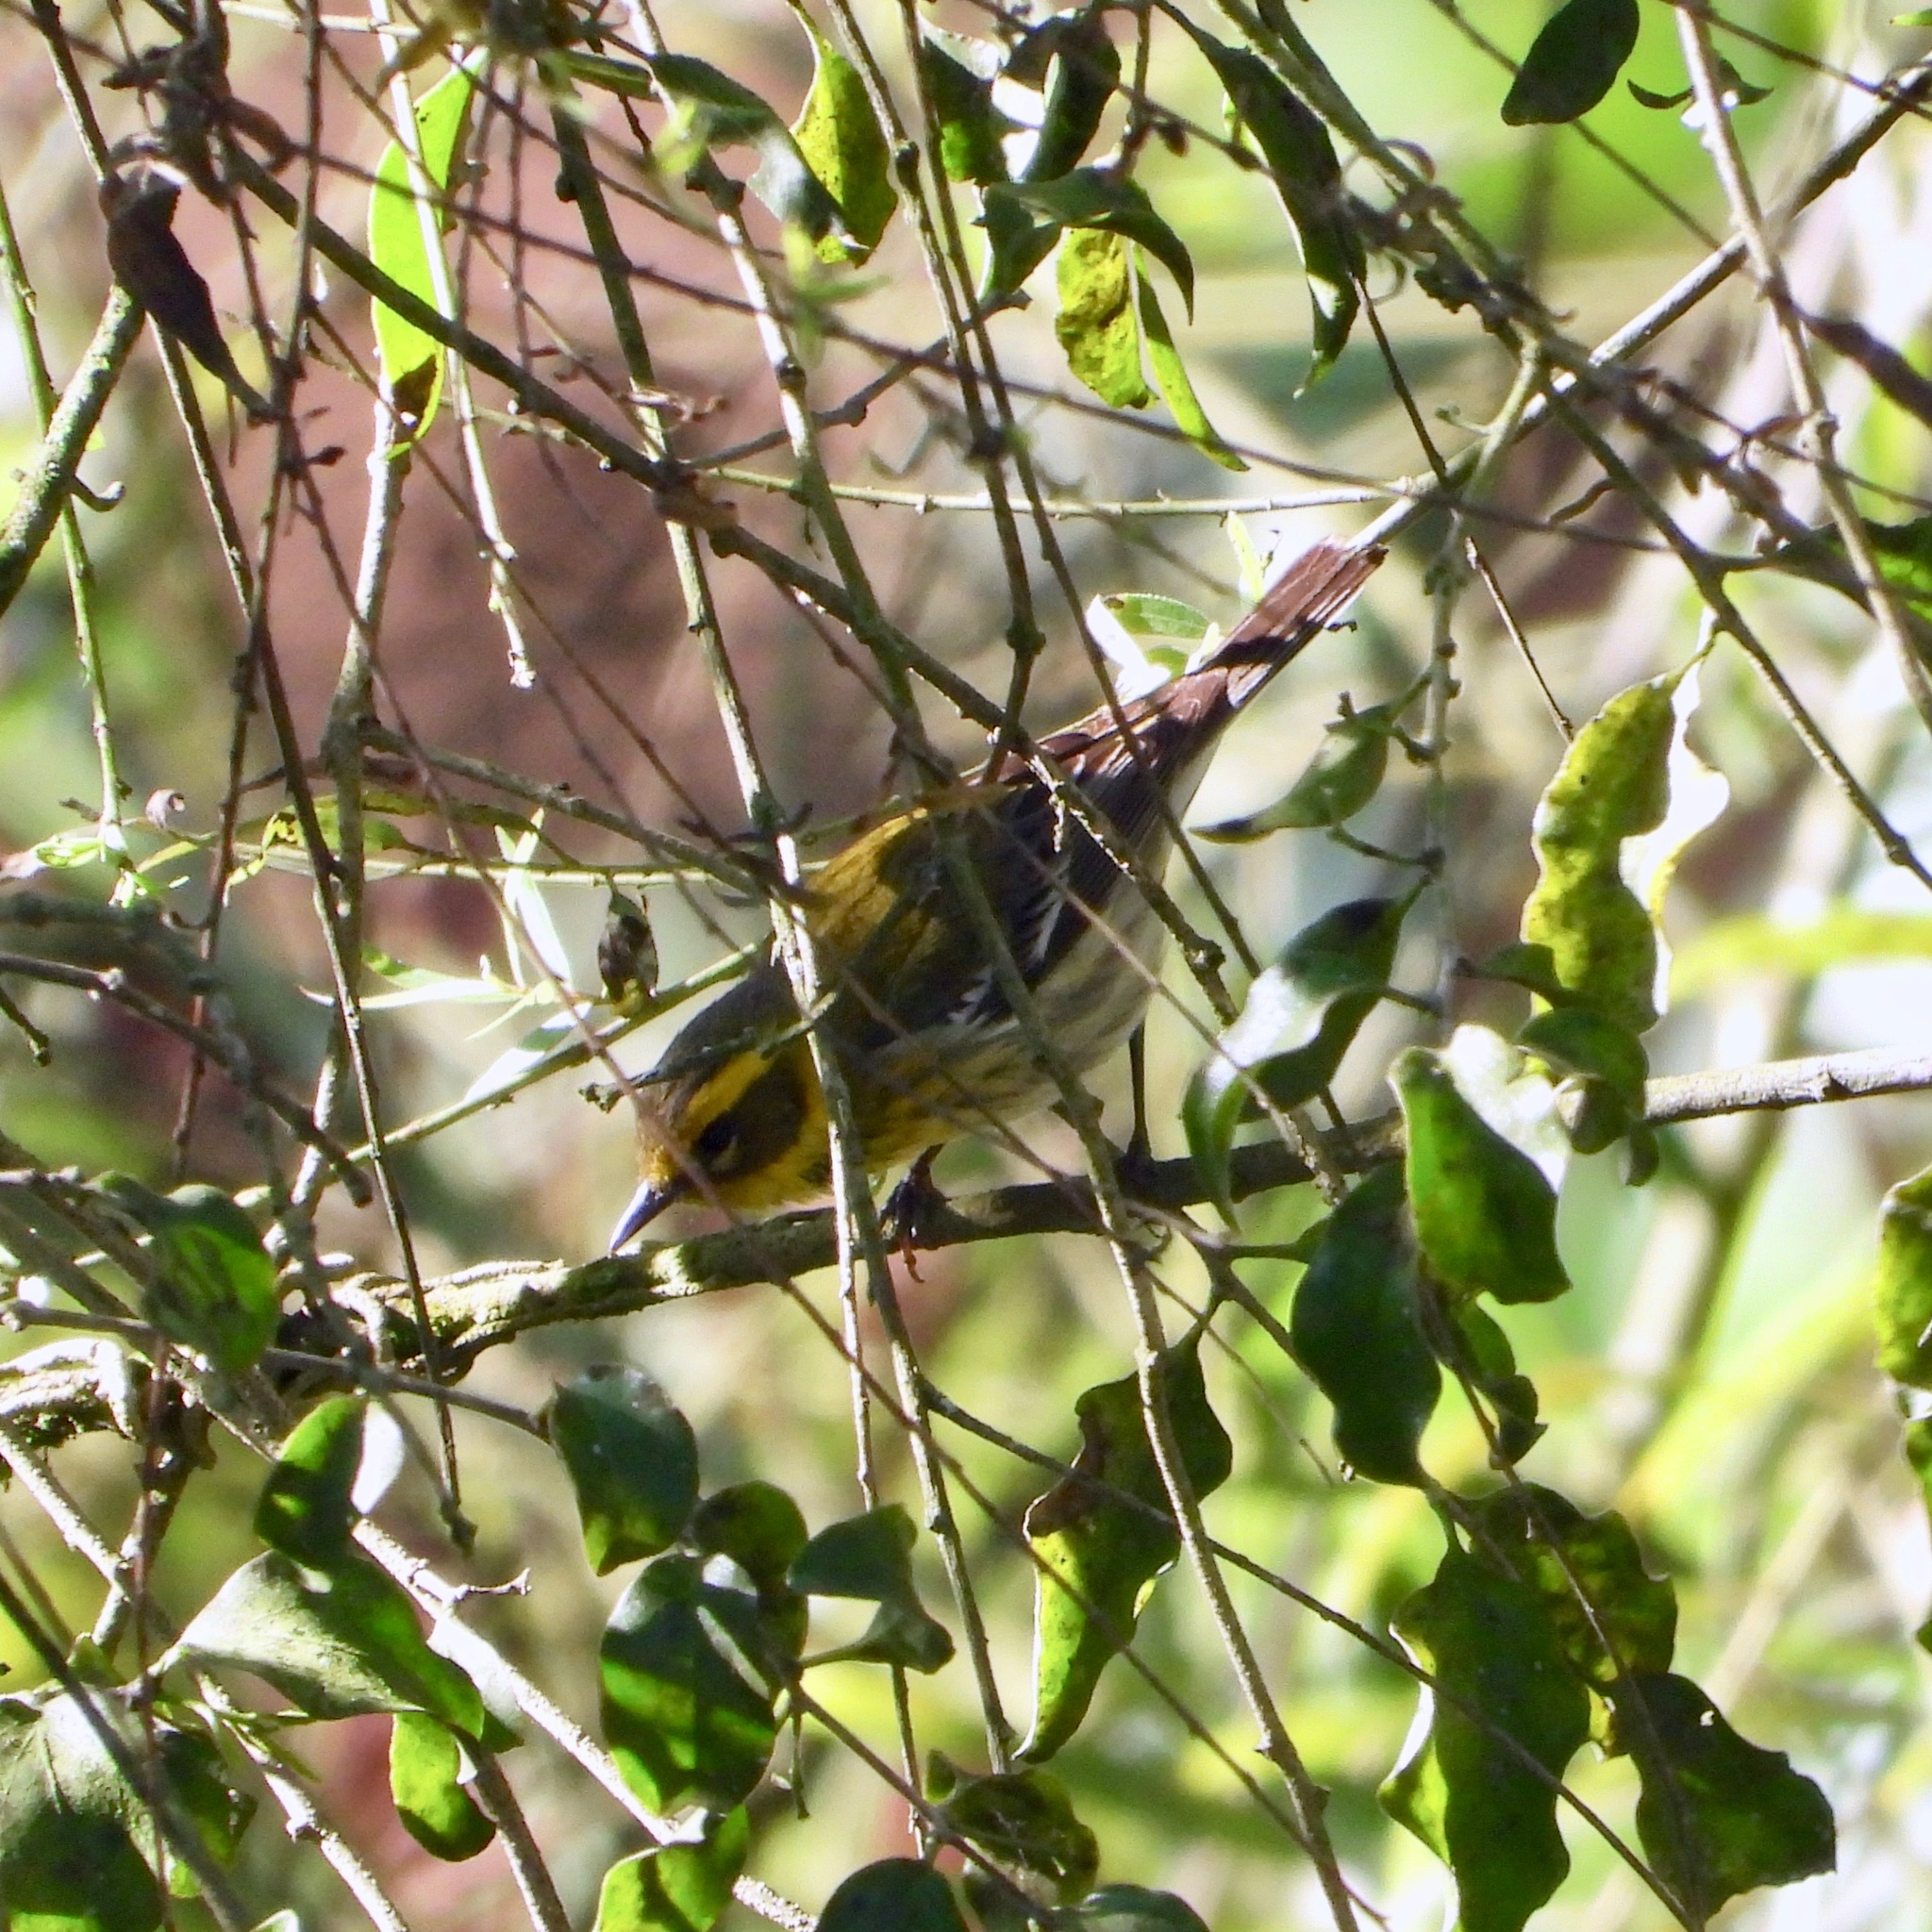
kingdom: Animalia
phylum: Chordata
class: Aves
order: Passeriformes
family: Parulidae
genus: Setophaga
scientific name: Setophaga townsendi
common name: Townsend's warbler
